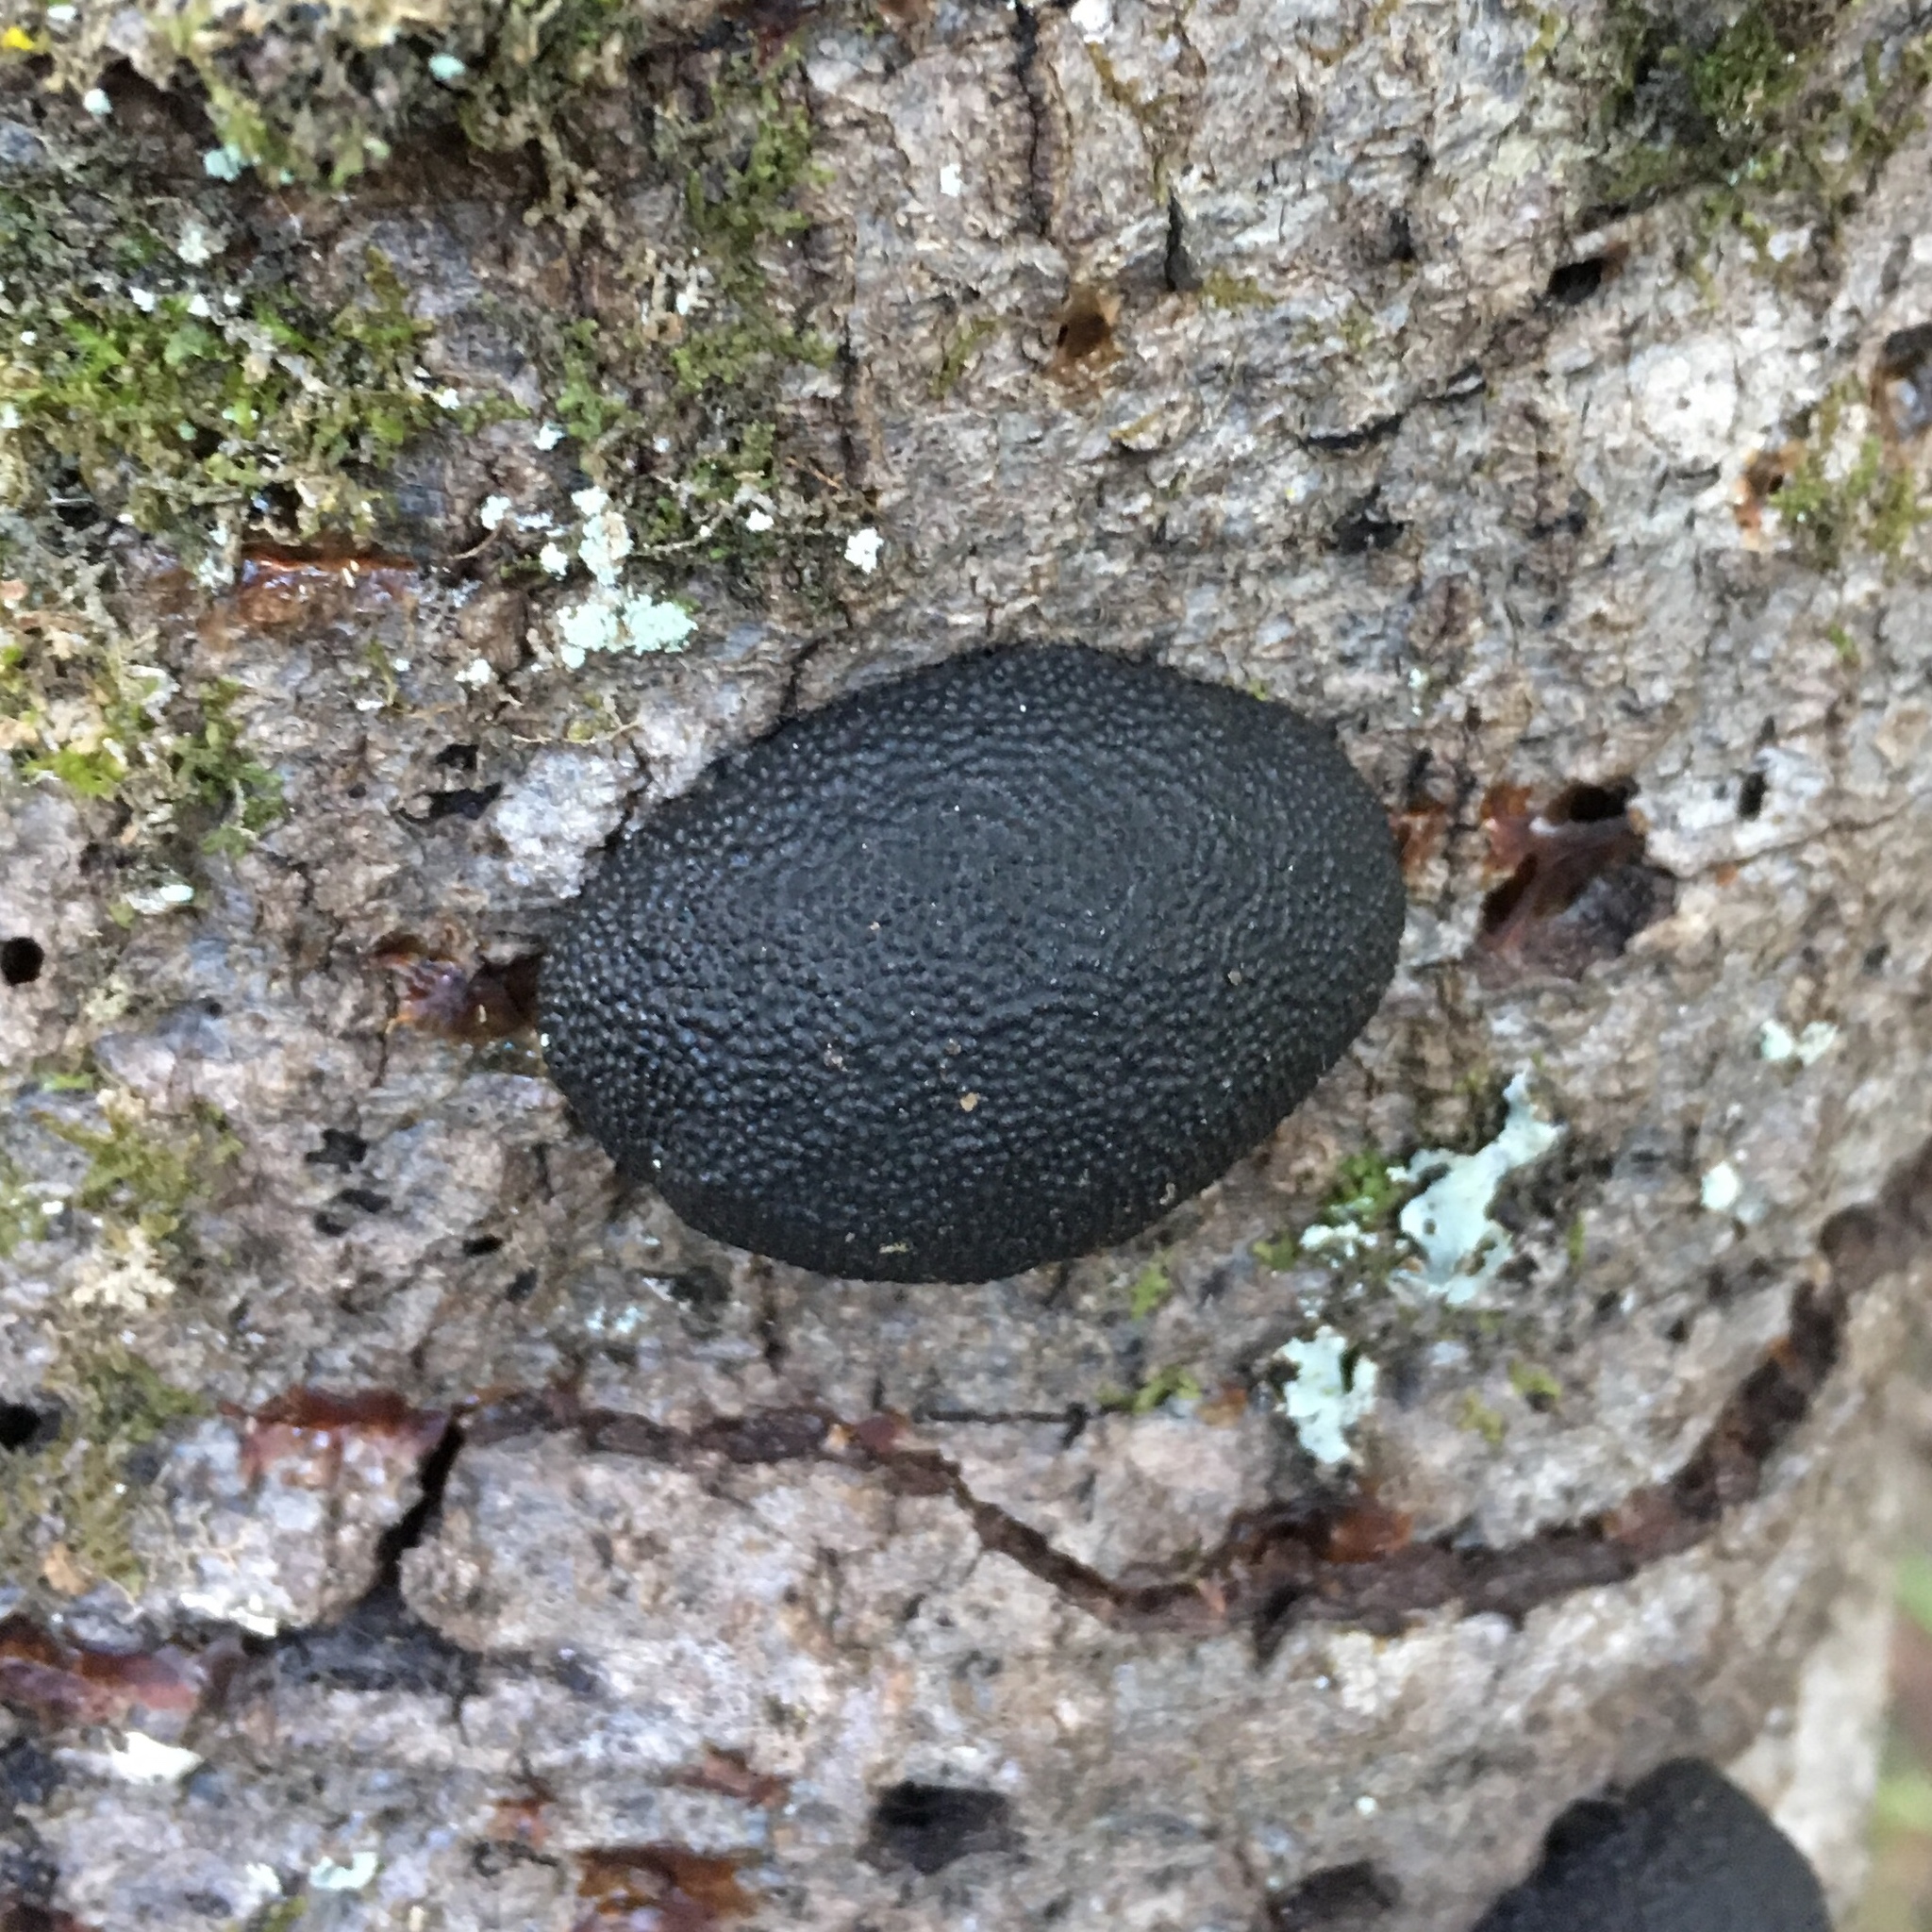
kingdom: Fungi
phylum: Ascomycota
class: Sordariomycetes
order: Xylariales
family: Hypoxylaceae
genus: Annulohypoxylon
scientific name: Annulohypoxylon thouarsianum
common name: Cramp balls
